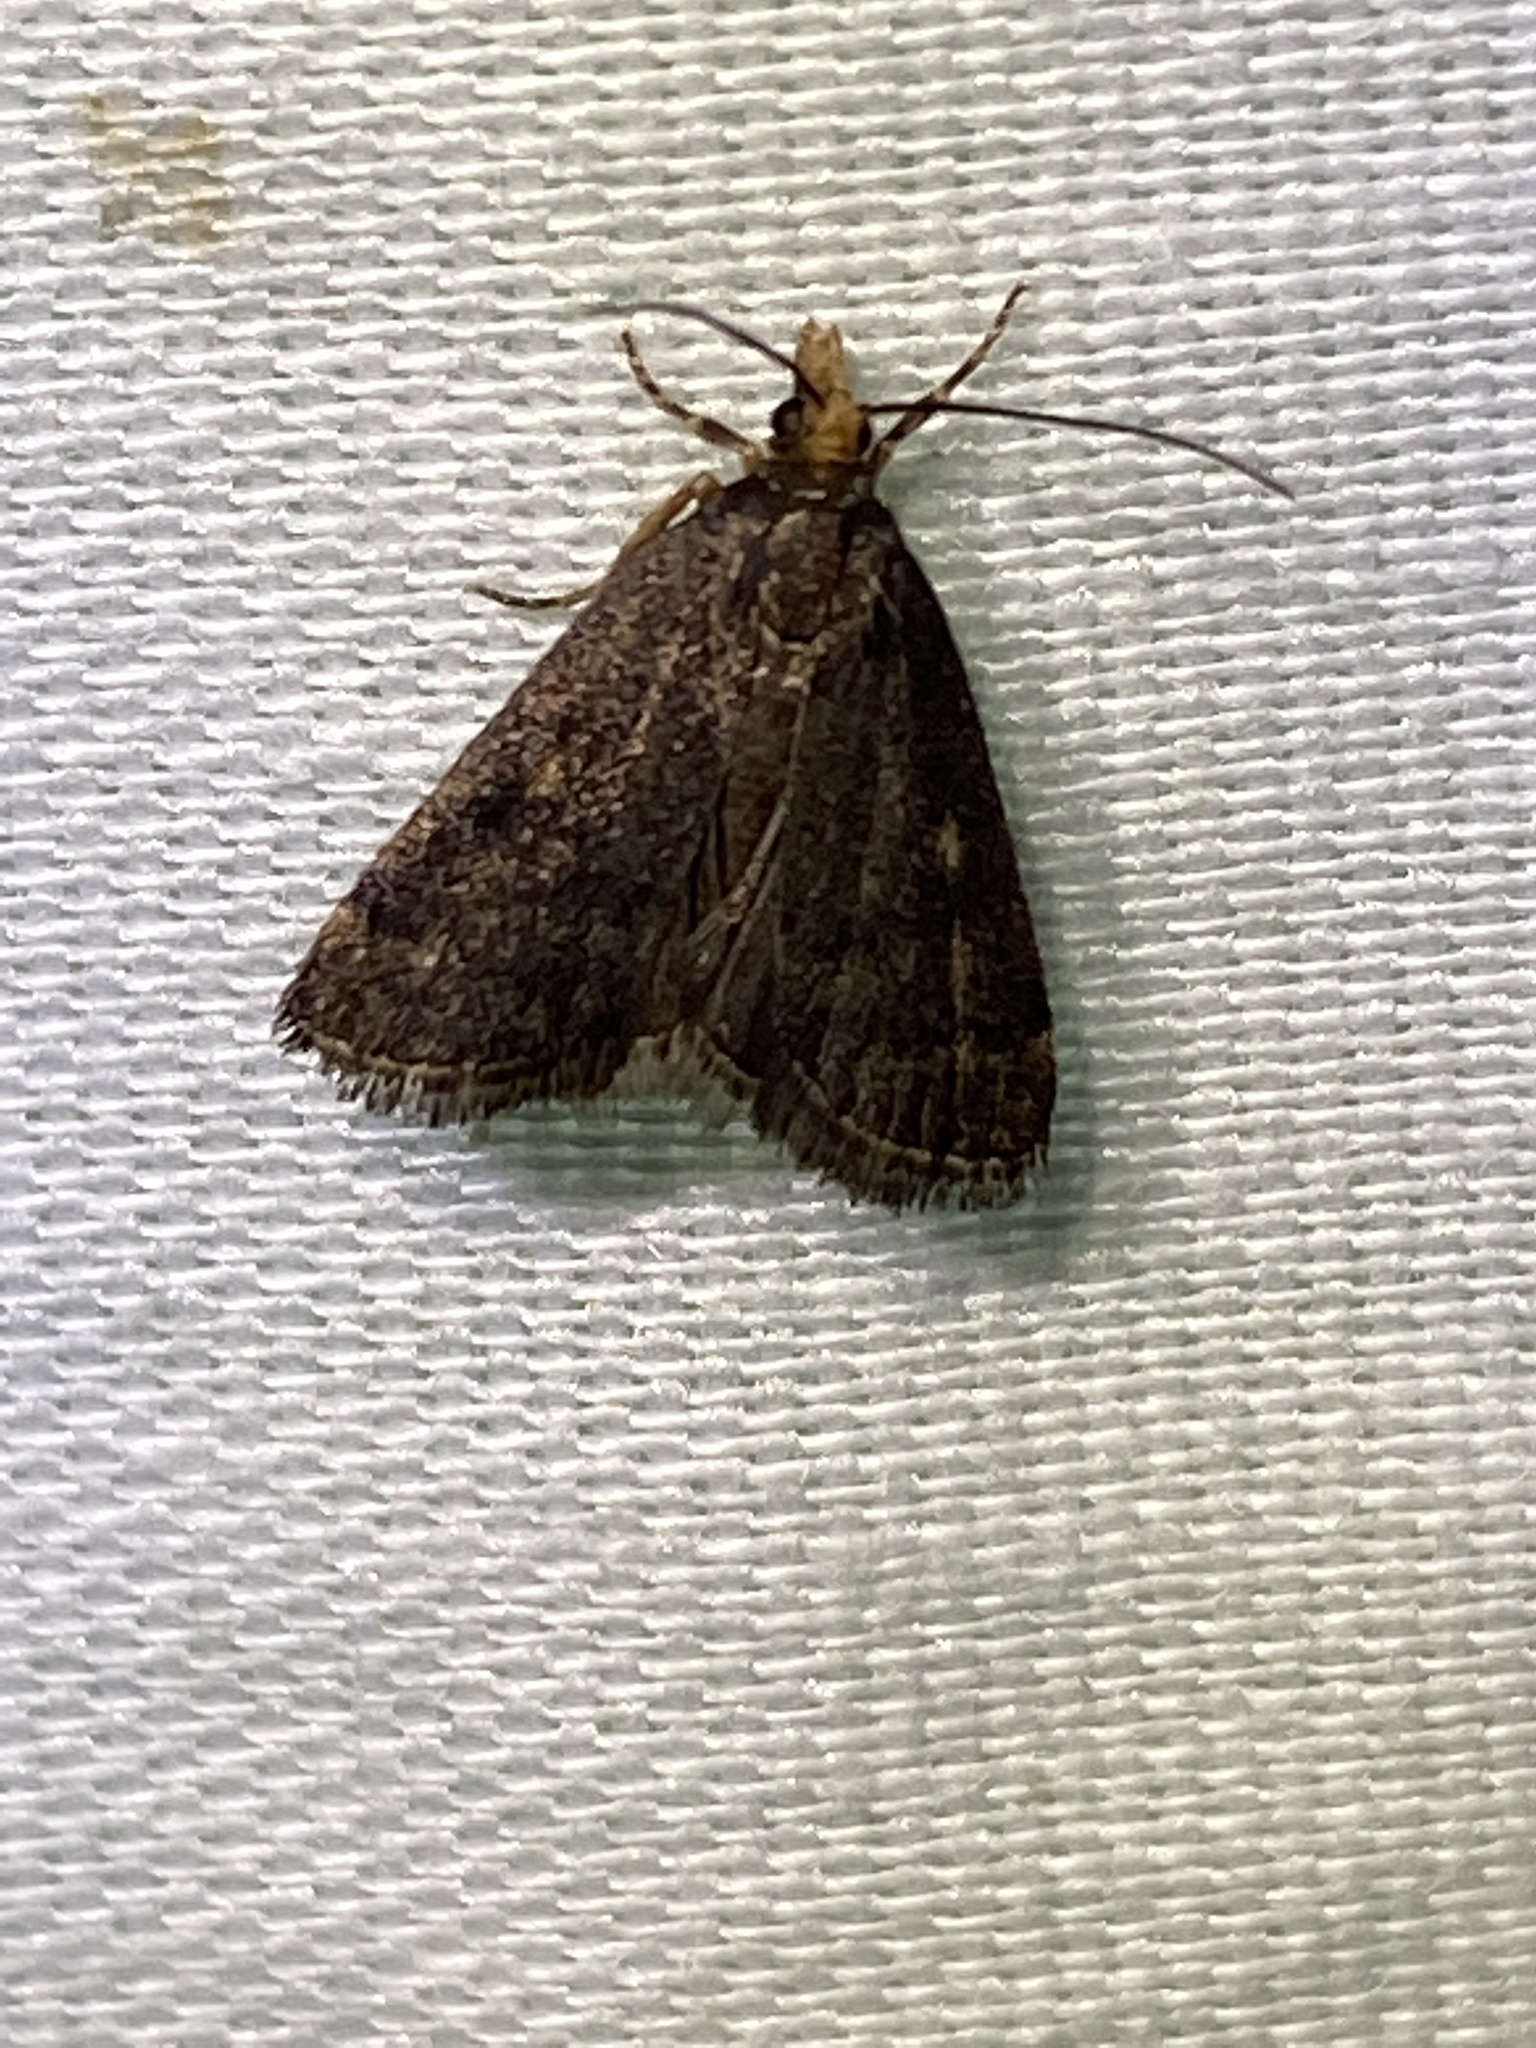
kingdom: Animalia
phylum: Arthropoda
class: Insecta
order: Lepidoptera
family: Crambidae
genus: Pyrausta
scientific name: Pyrausta merrickalis
